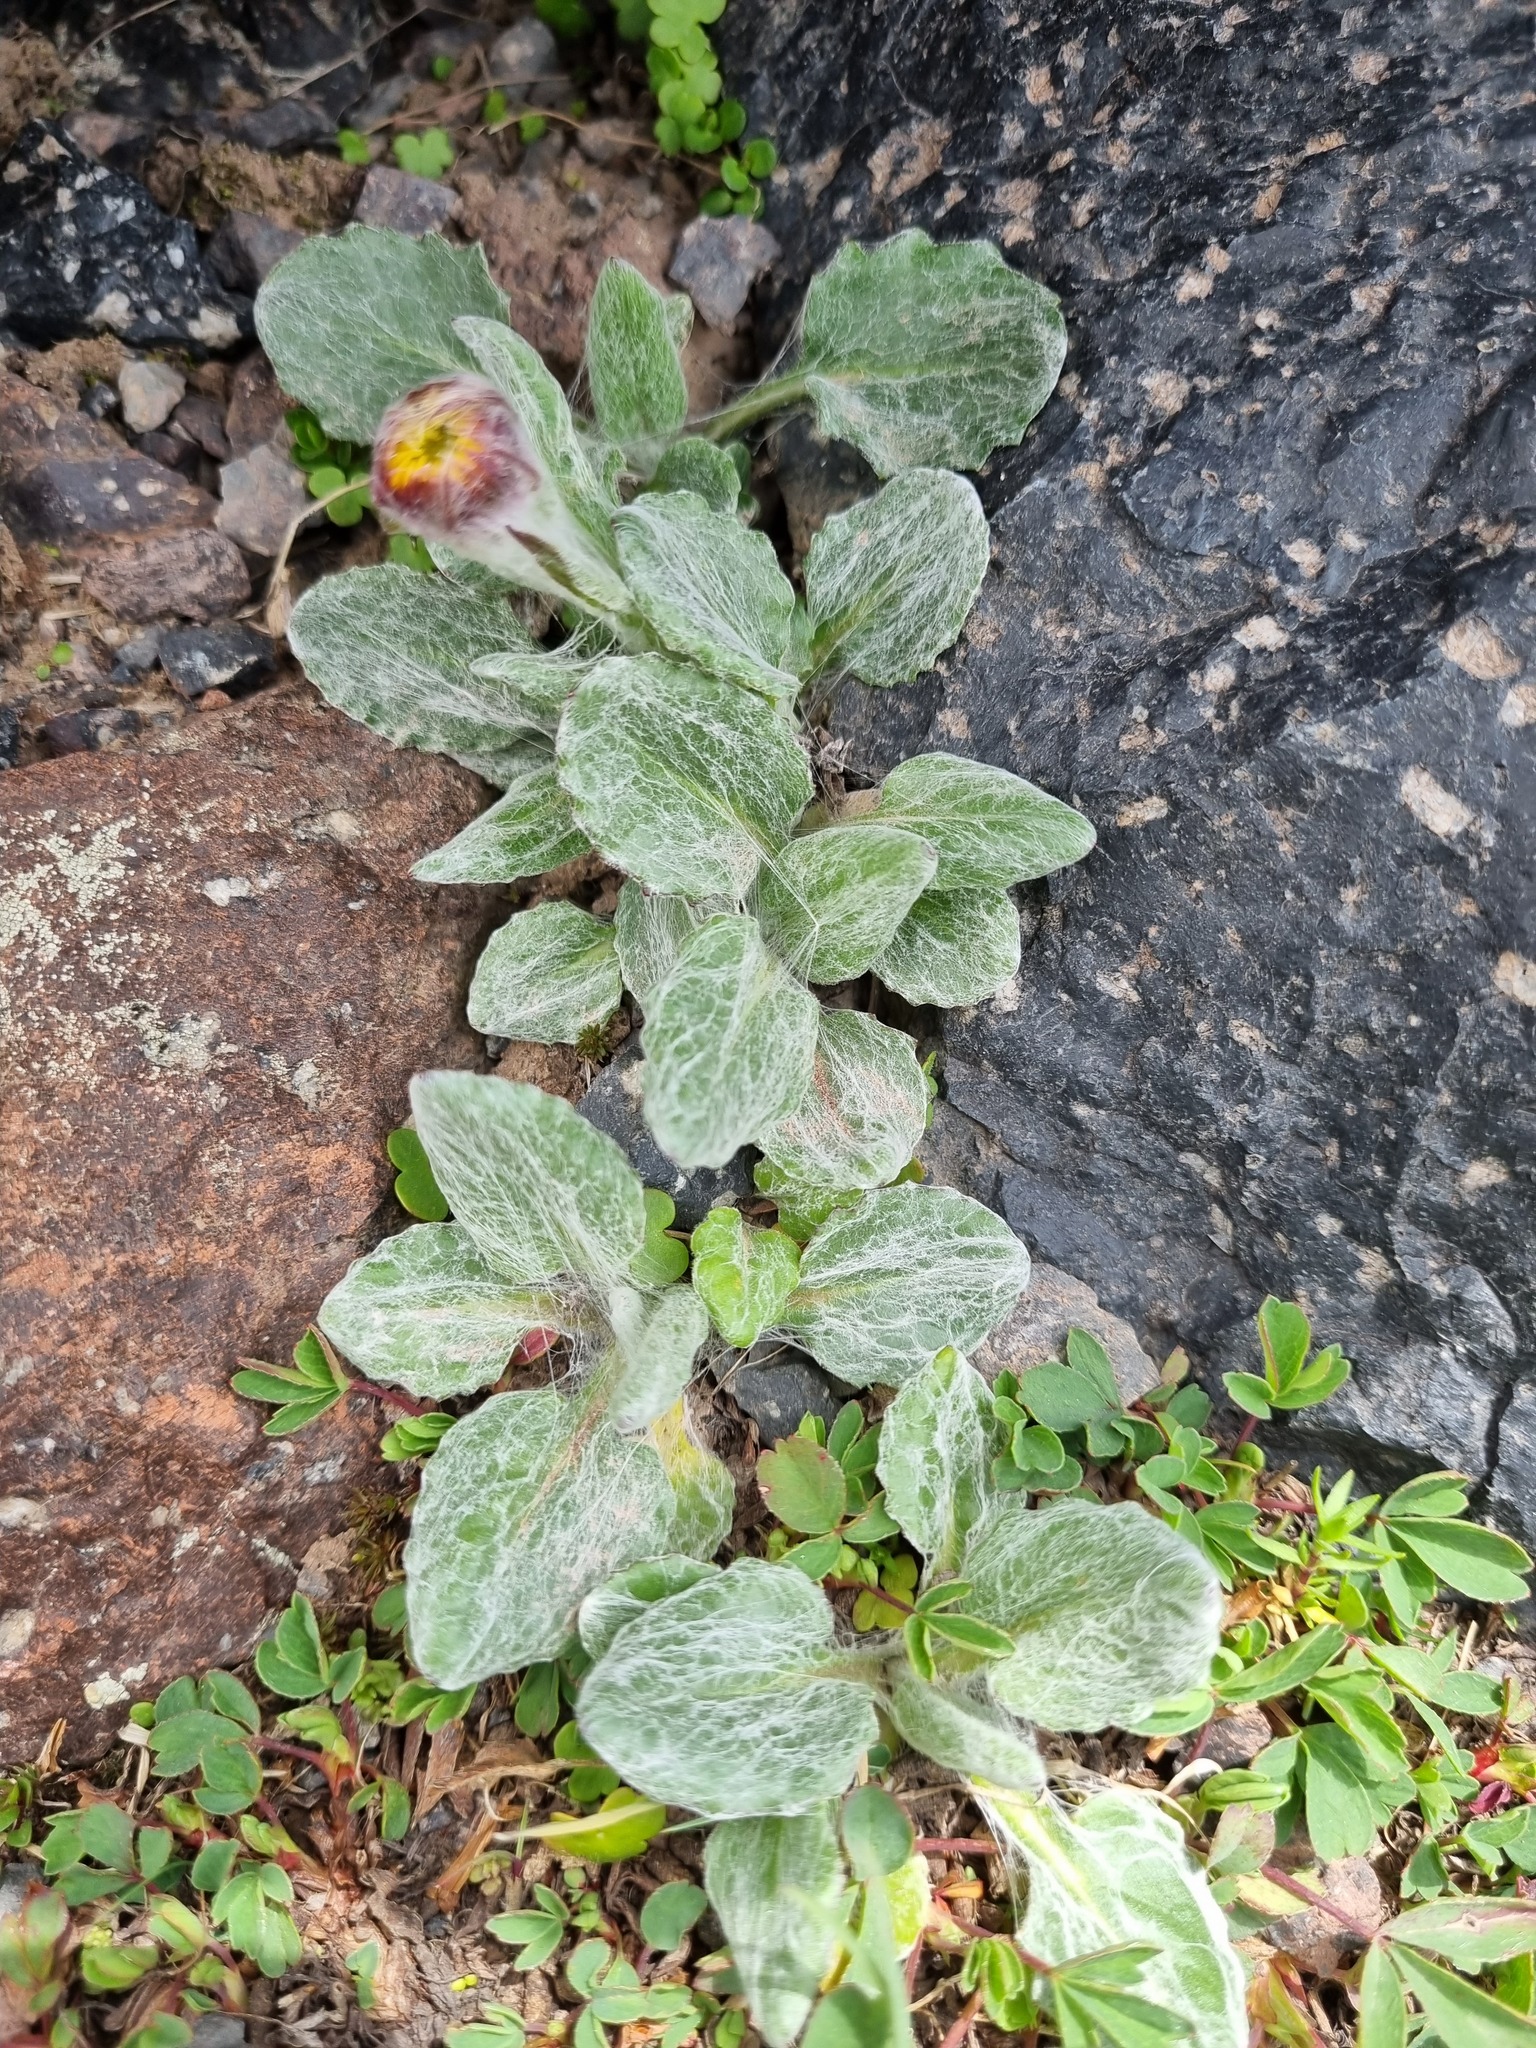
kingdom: Plantae
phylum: Tracheophyta
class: Magnoliopsida
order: Asterales
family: Asteraceae
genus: Tephroseris
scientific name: Tephroseris integrifolia
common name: Field fleawort
